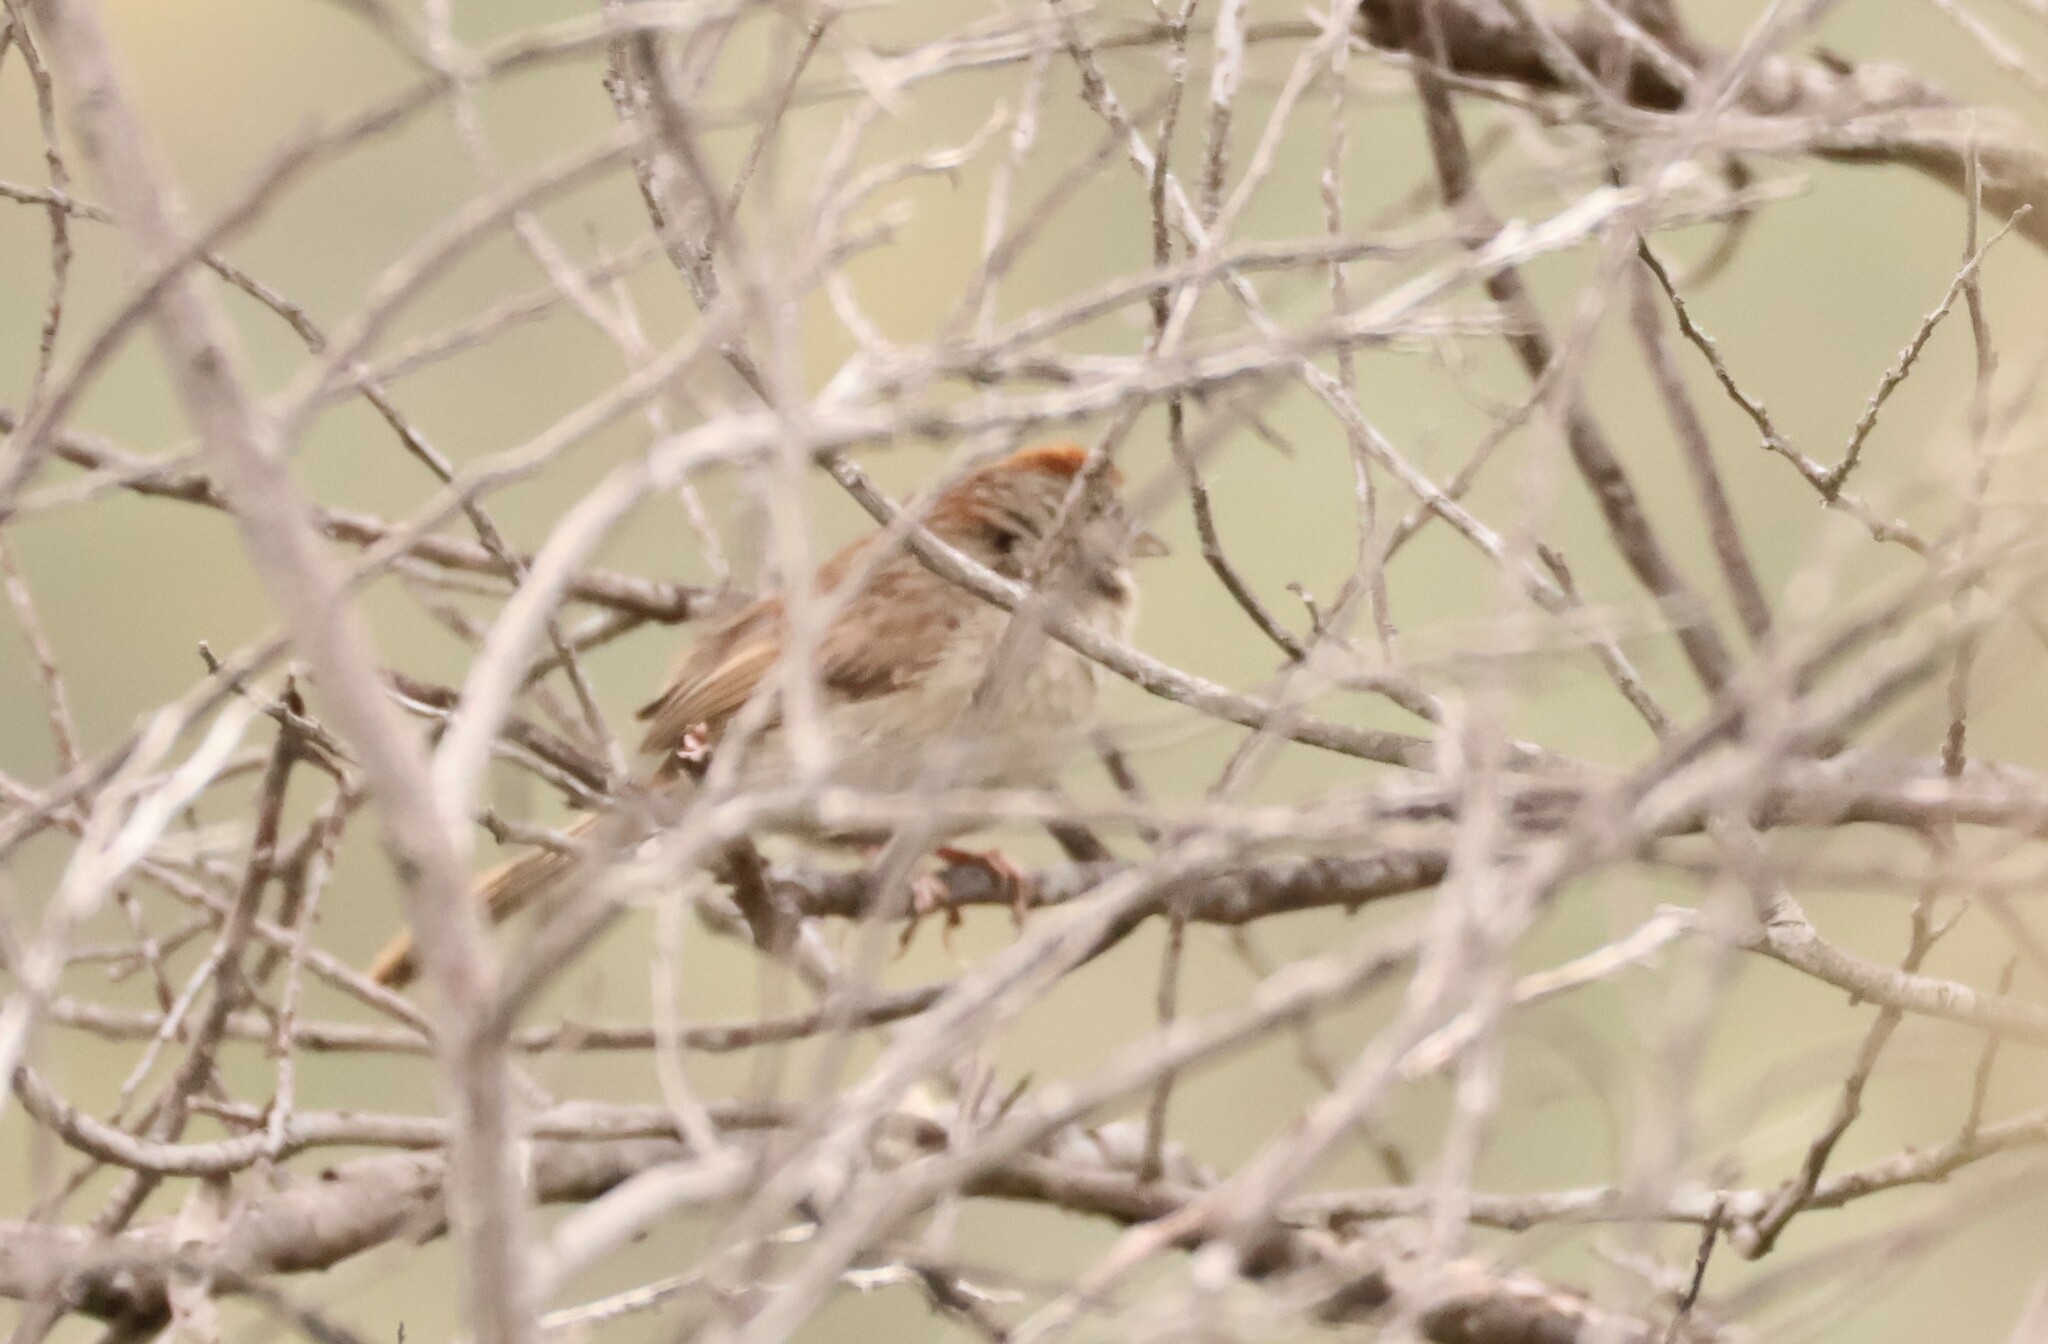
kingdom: Animalia
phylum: Chordata
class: Aves
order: Passeriformes
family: Passerellidae
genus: Aimophila
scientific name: Aimophila ruficeps
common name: Rufous-crowned sparrow
